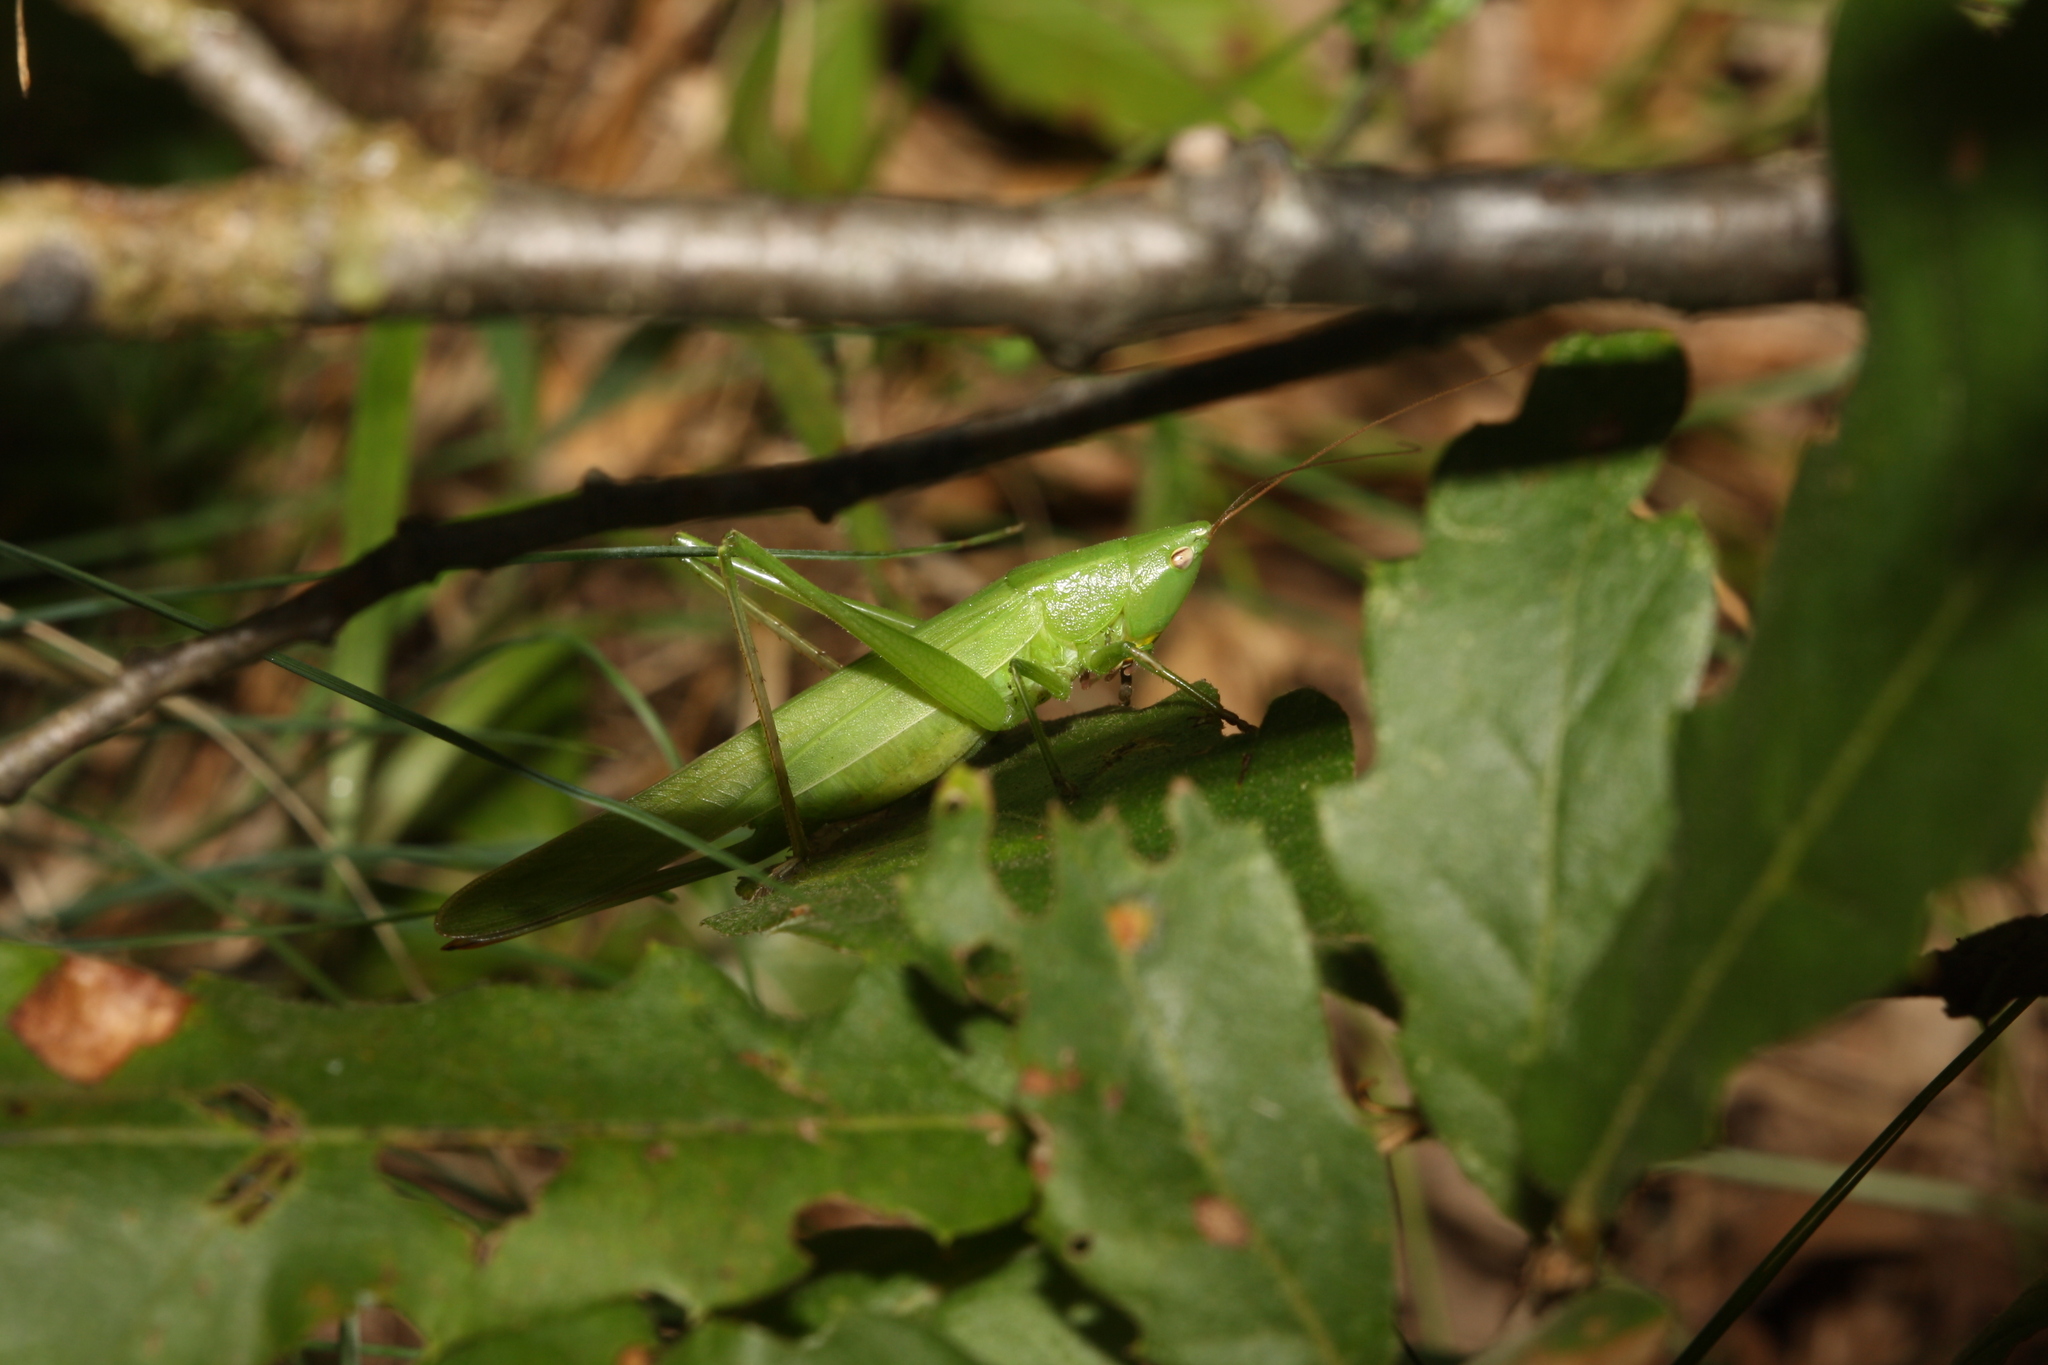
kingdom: Animalia
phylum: Arthropoda
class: Insecta
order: Orthoptera
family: Tettigoniidae
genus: Ruspolia
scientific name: Ruspolia nitidula
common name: Large conehead
